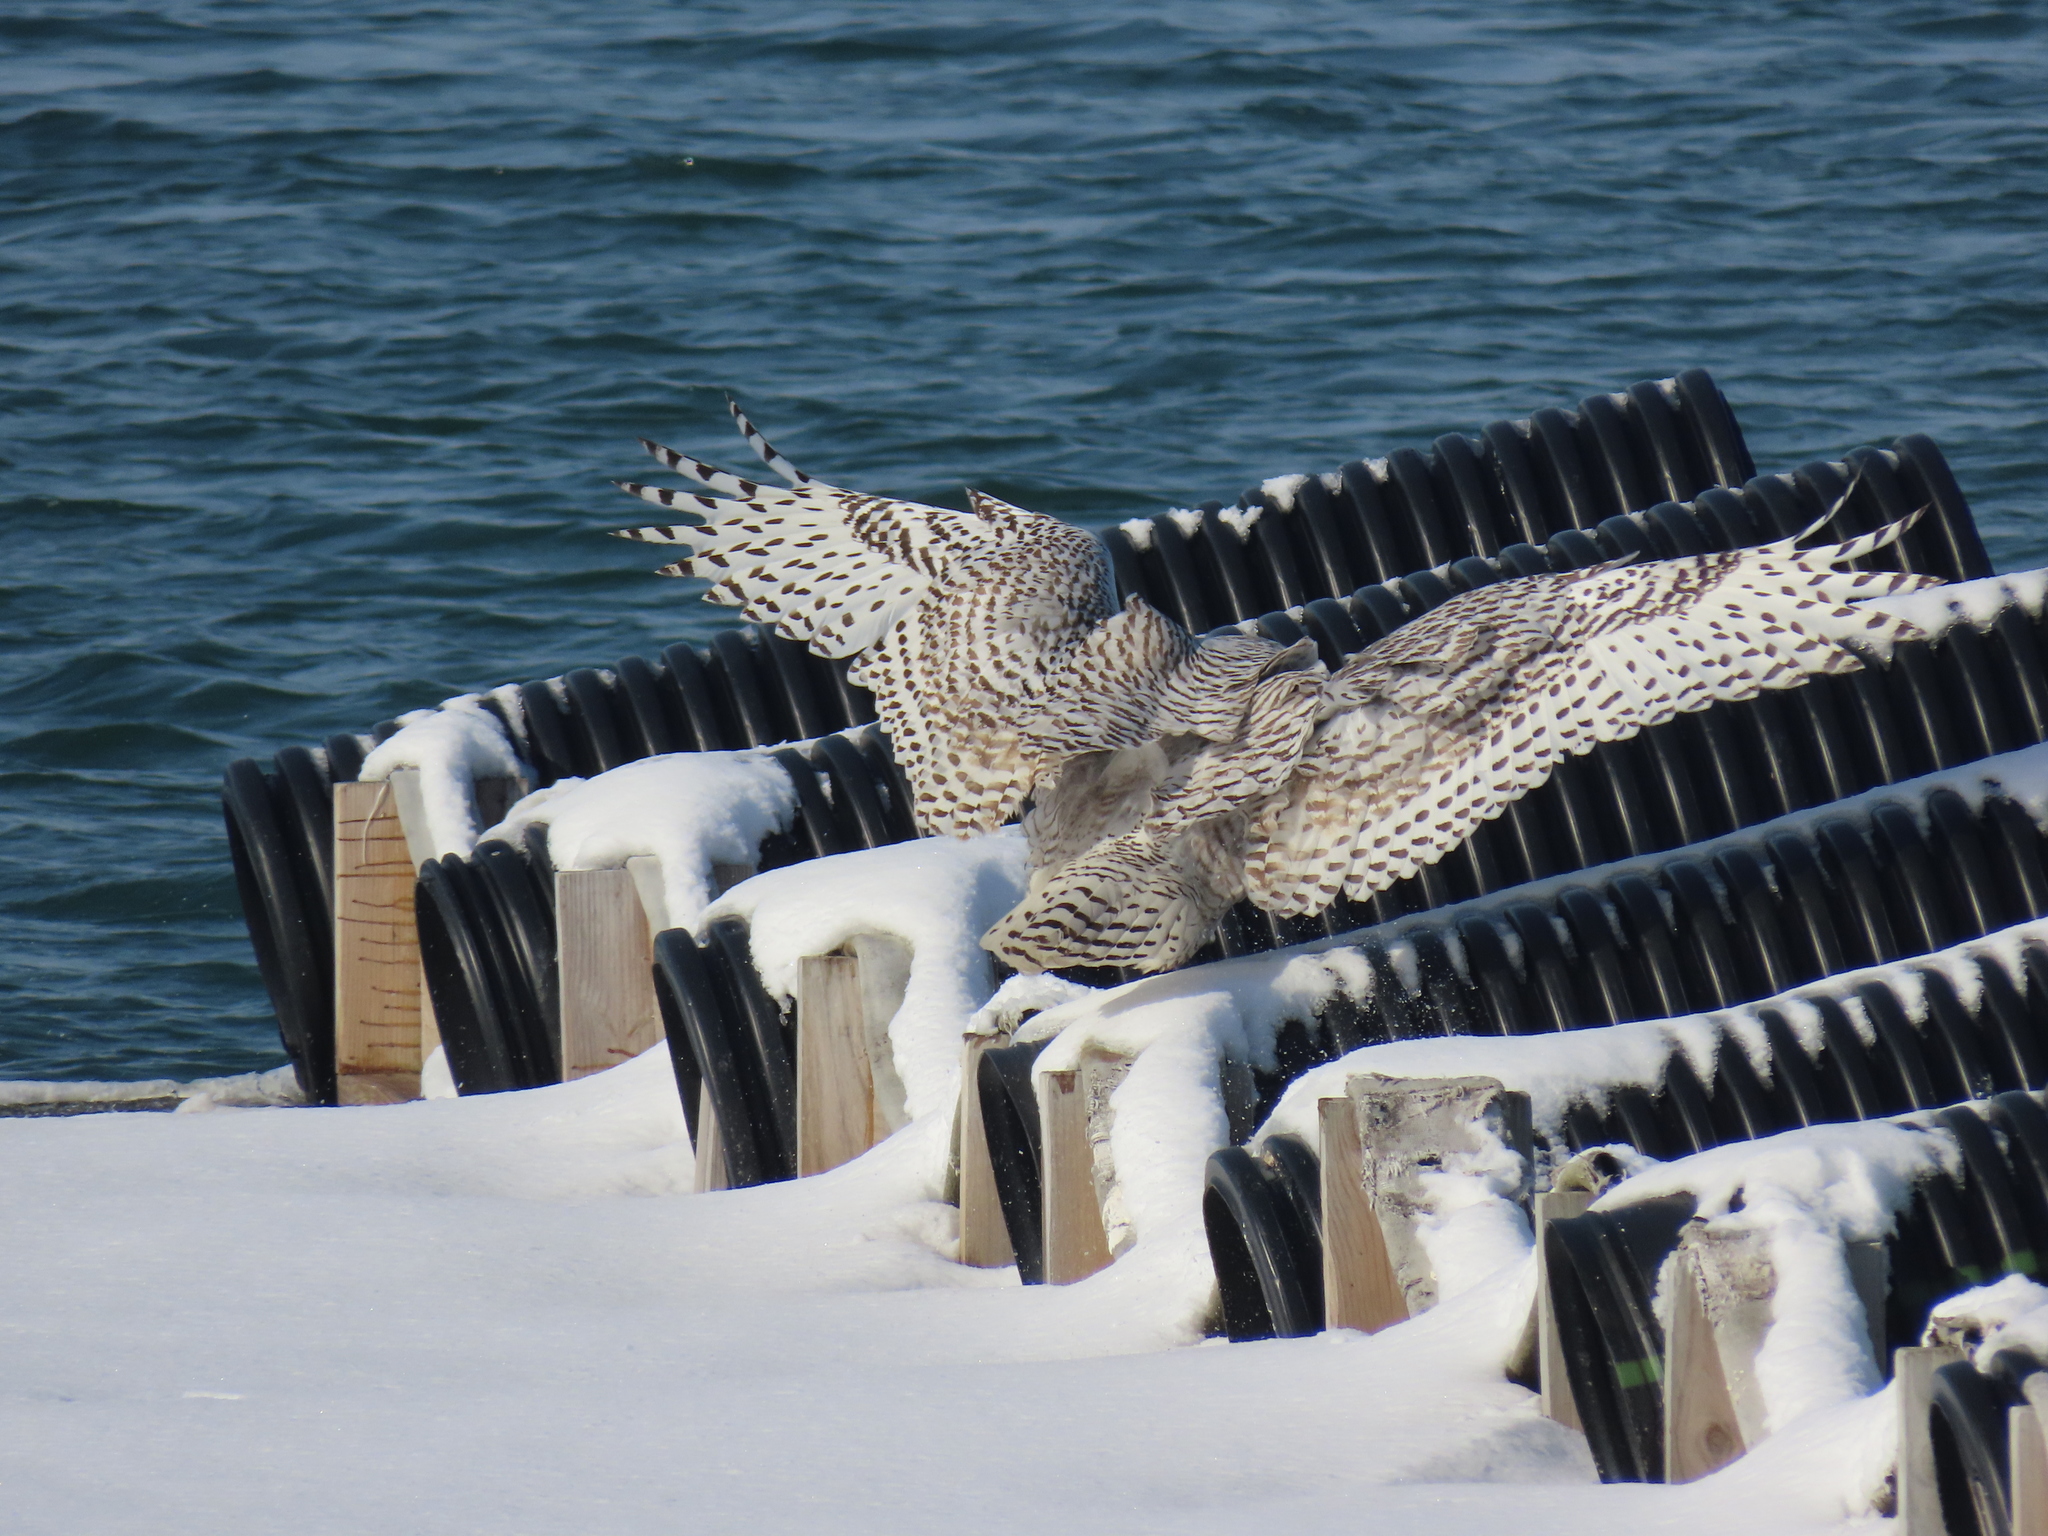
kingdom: Animalia
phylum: Chordata
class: Aves
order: Strigiformes
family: Strigidae
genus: Bubo
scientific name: Bubo scandiacus
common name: Snowy owl
